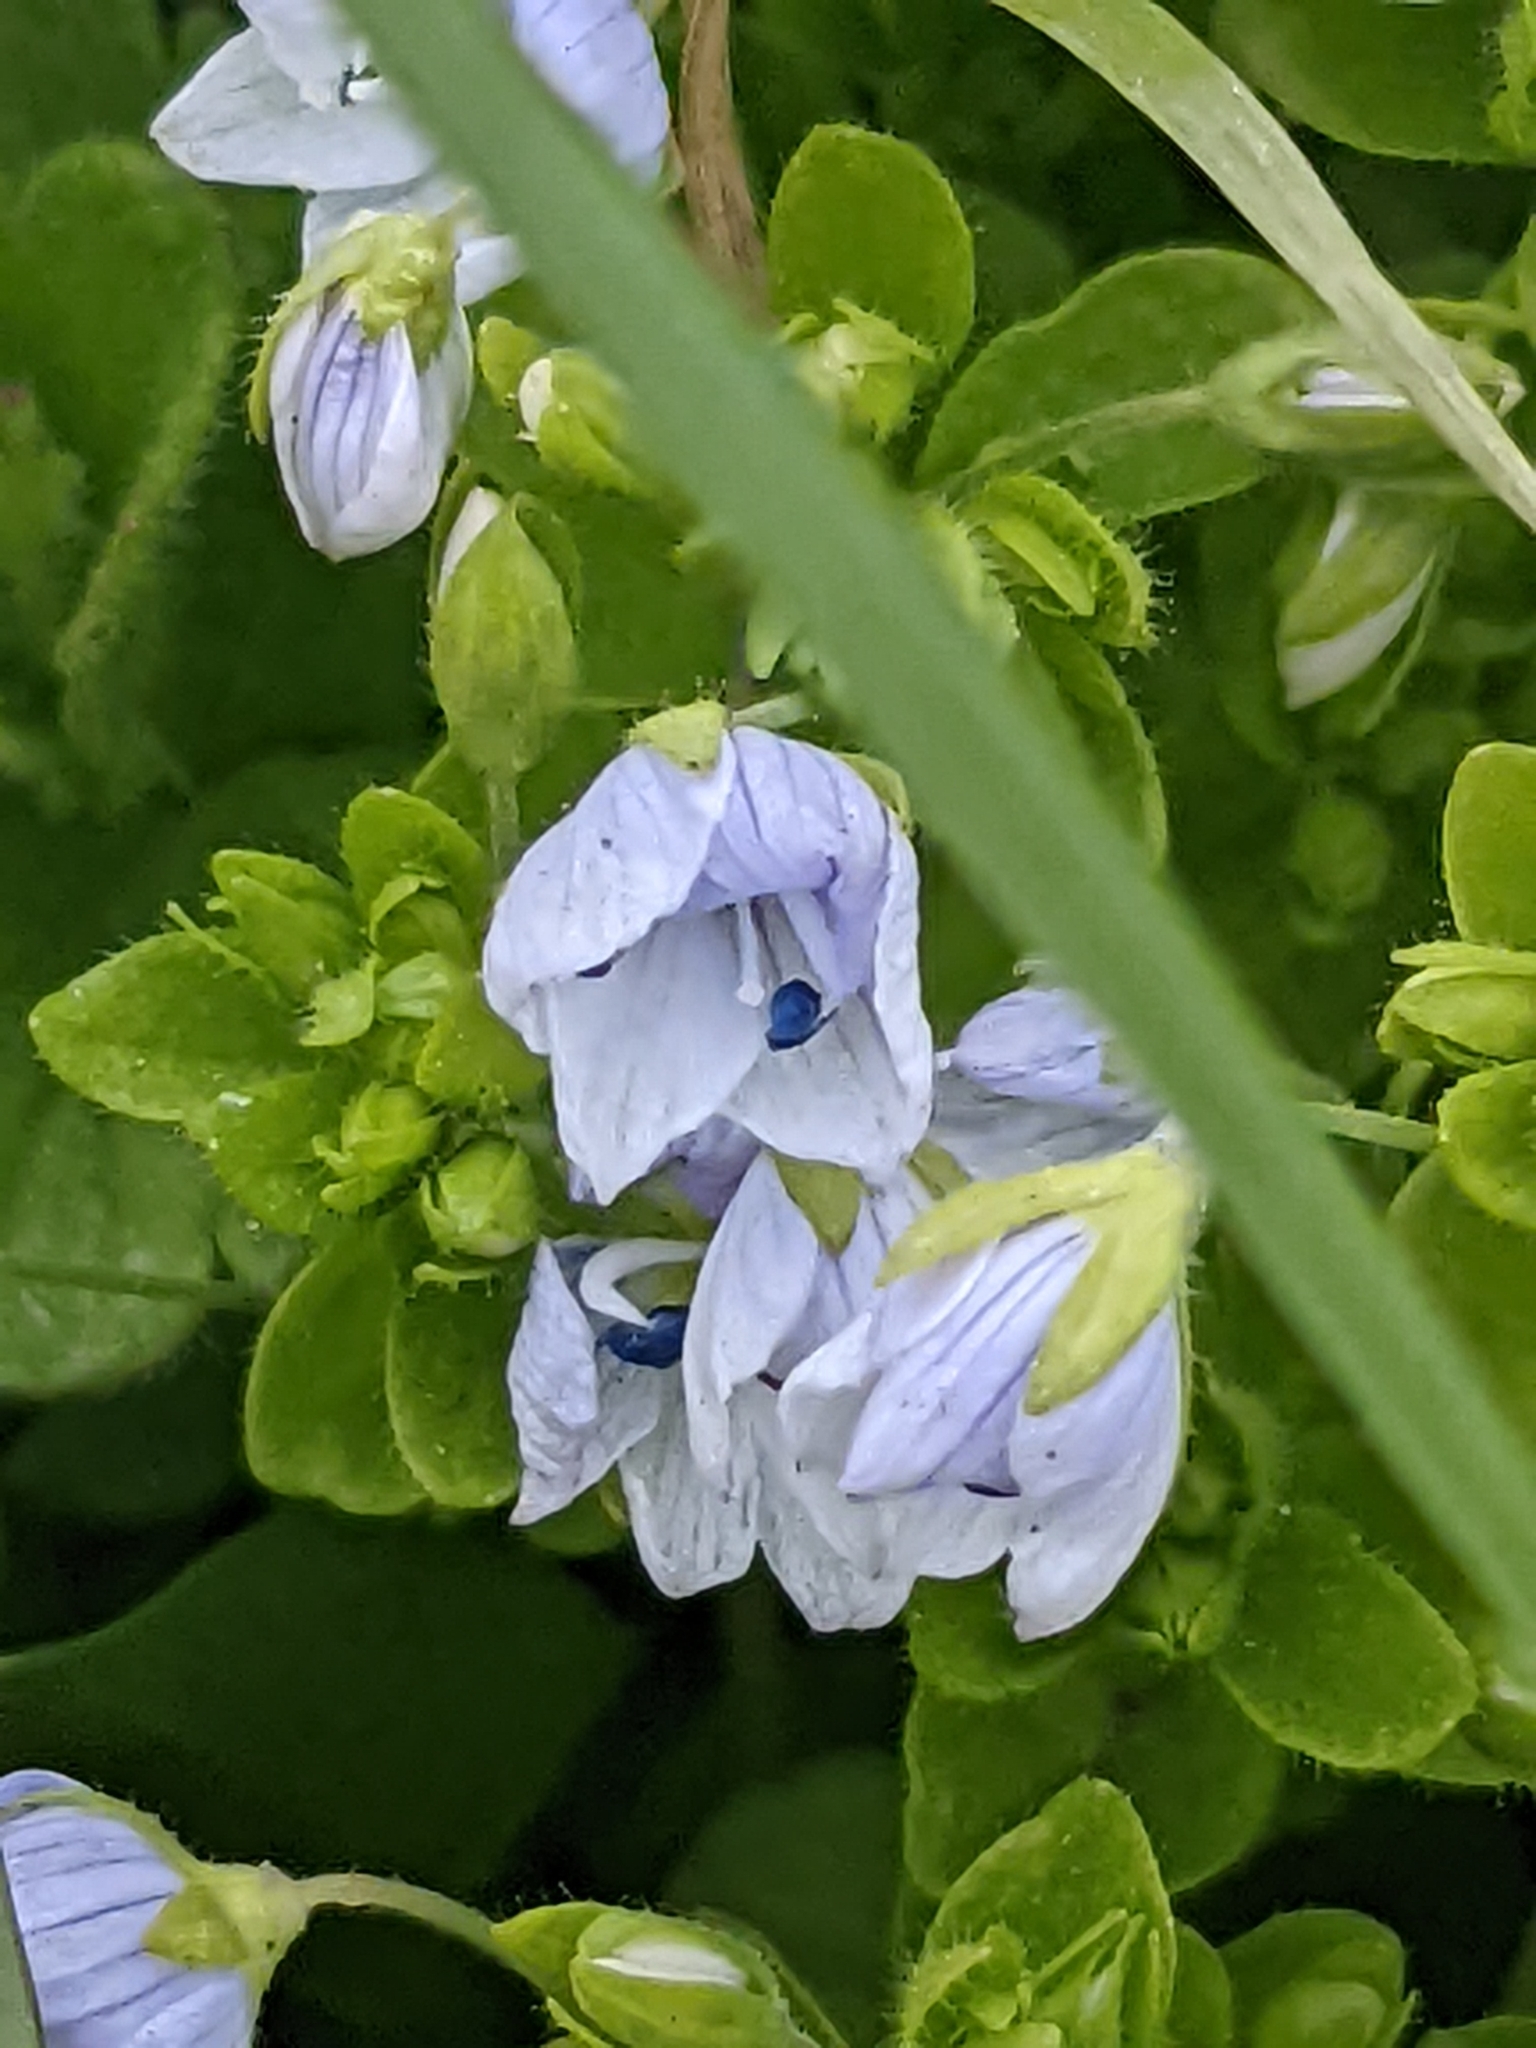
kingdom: Plantae
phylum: Tracheophyta
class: Magnoliopsida
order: Lamiales
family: Plantaginaceae
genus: Veronica
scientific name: Veronica filiformis
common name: Slender speedwell
